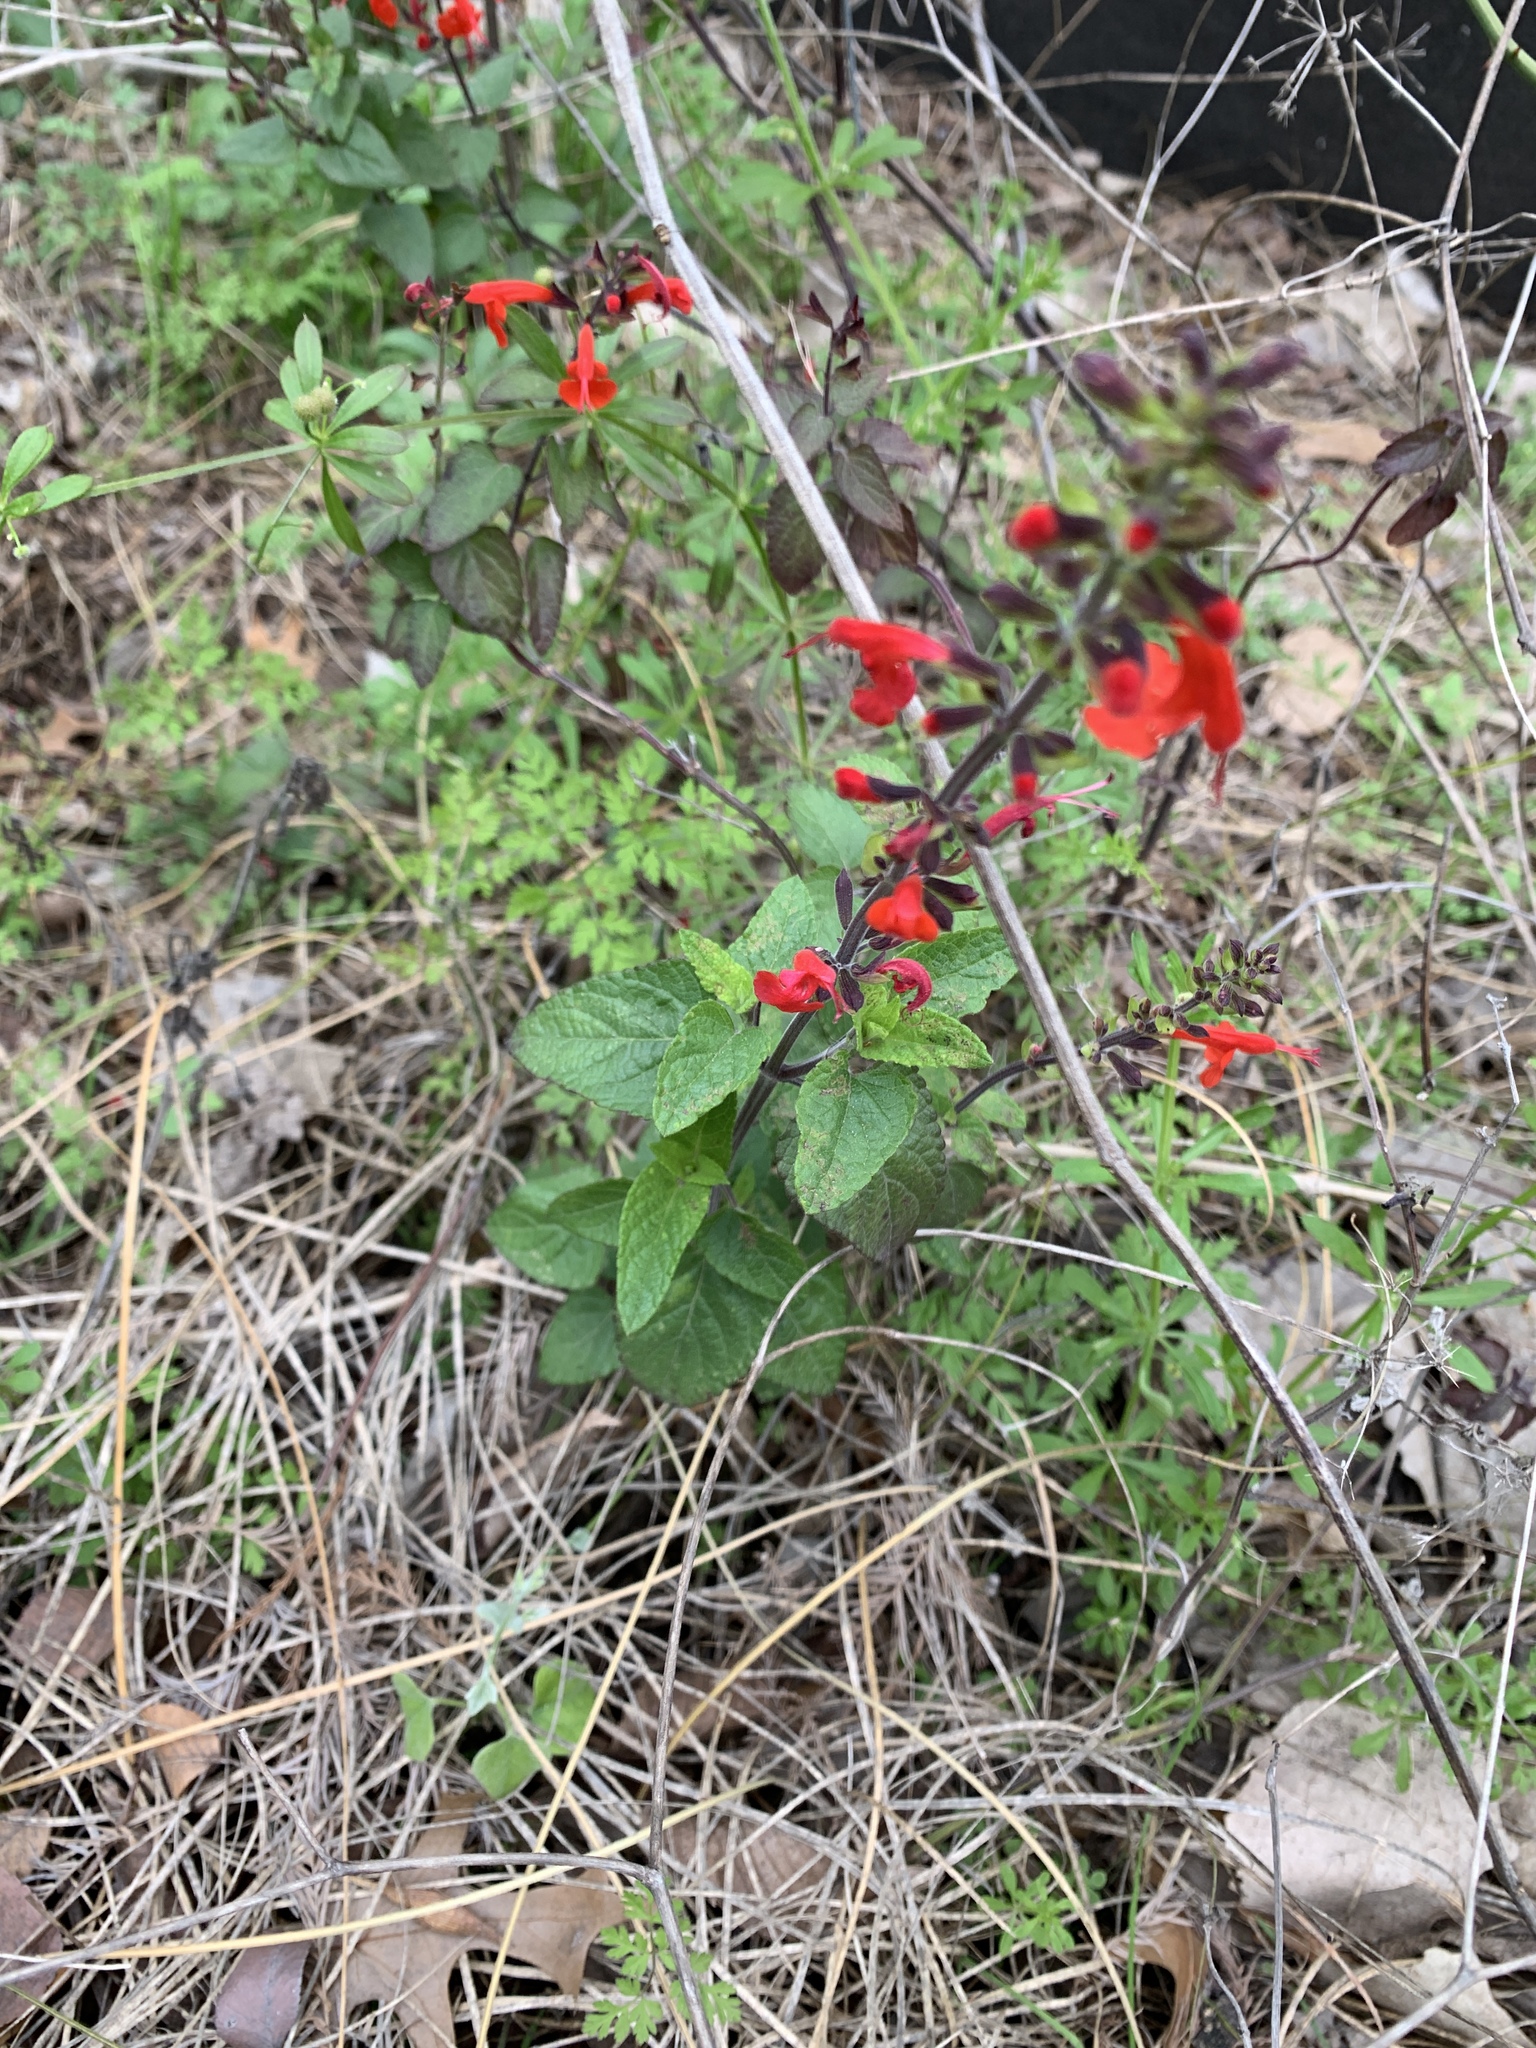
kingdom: Plantae
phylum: Tracheophyta
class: Magnoliopsida
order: Lamiales
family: Lamiaceae
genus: Salvia
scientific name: Salvia coccinea
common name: Blood sage
